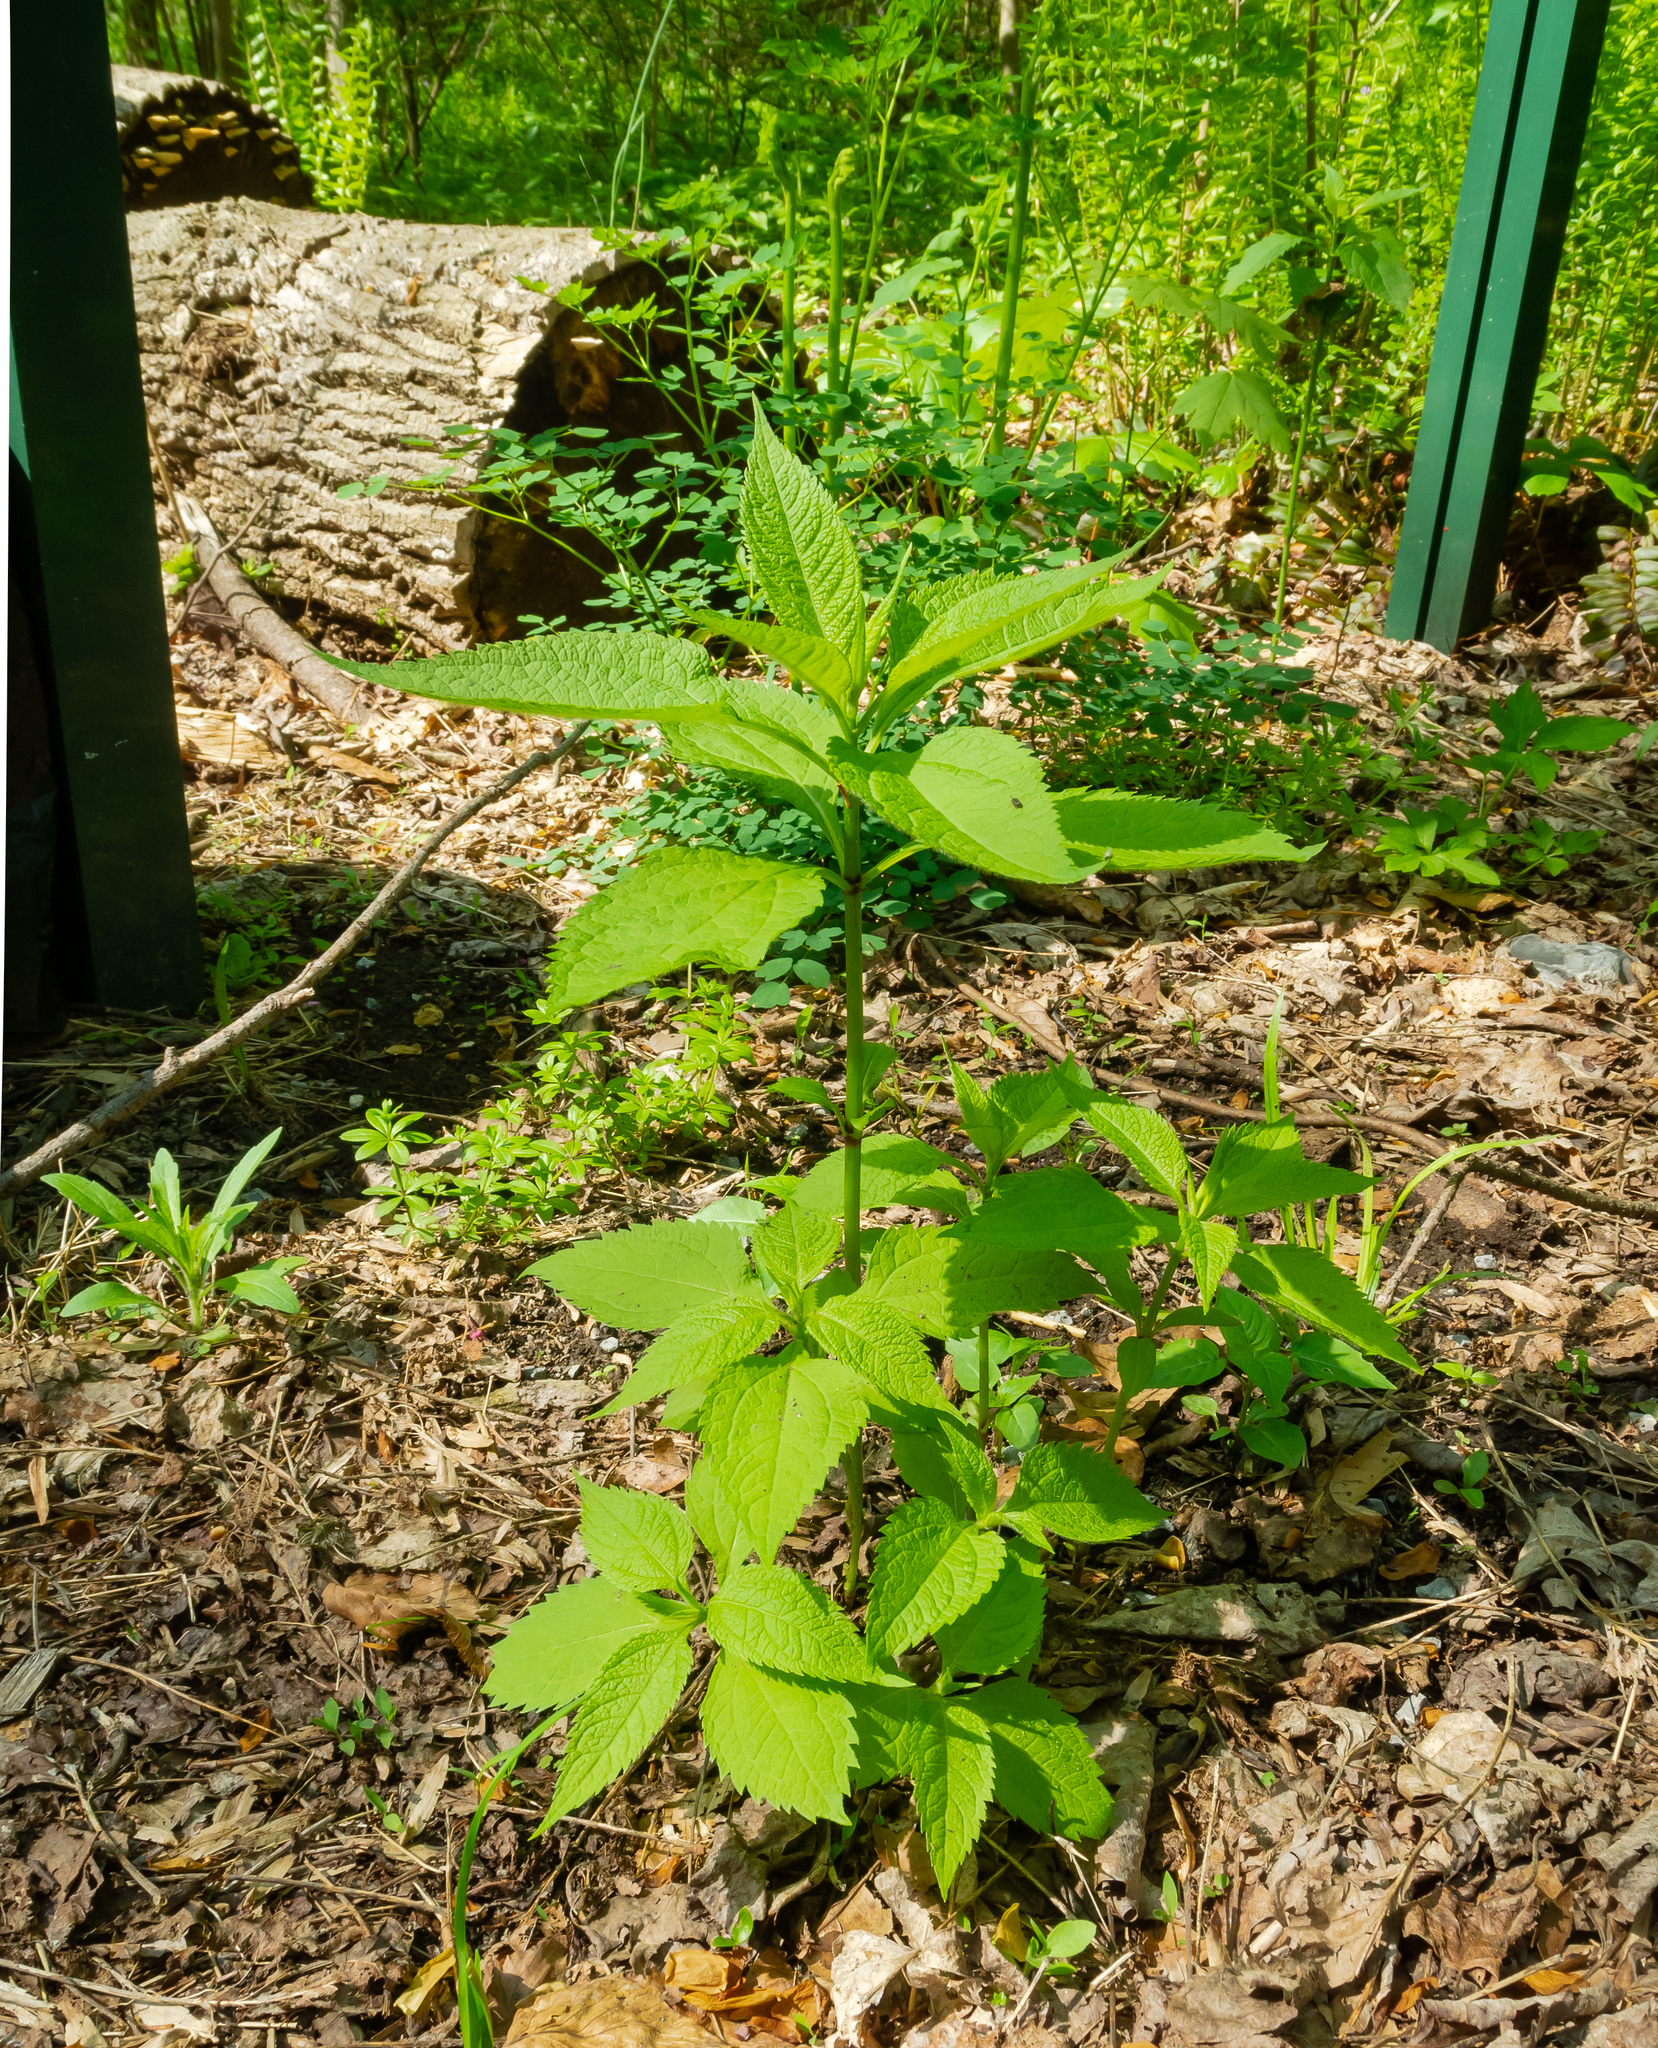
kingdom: Plantae
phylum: Tracheophyta
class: Magnoliopsida
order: Asterales
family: Asteraceae
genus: Eutrochium
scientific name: Eutrochium purpureum
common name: Gravelroot
